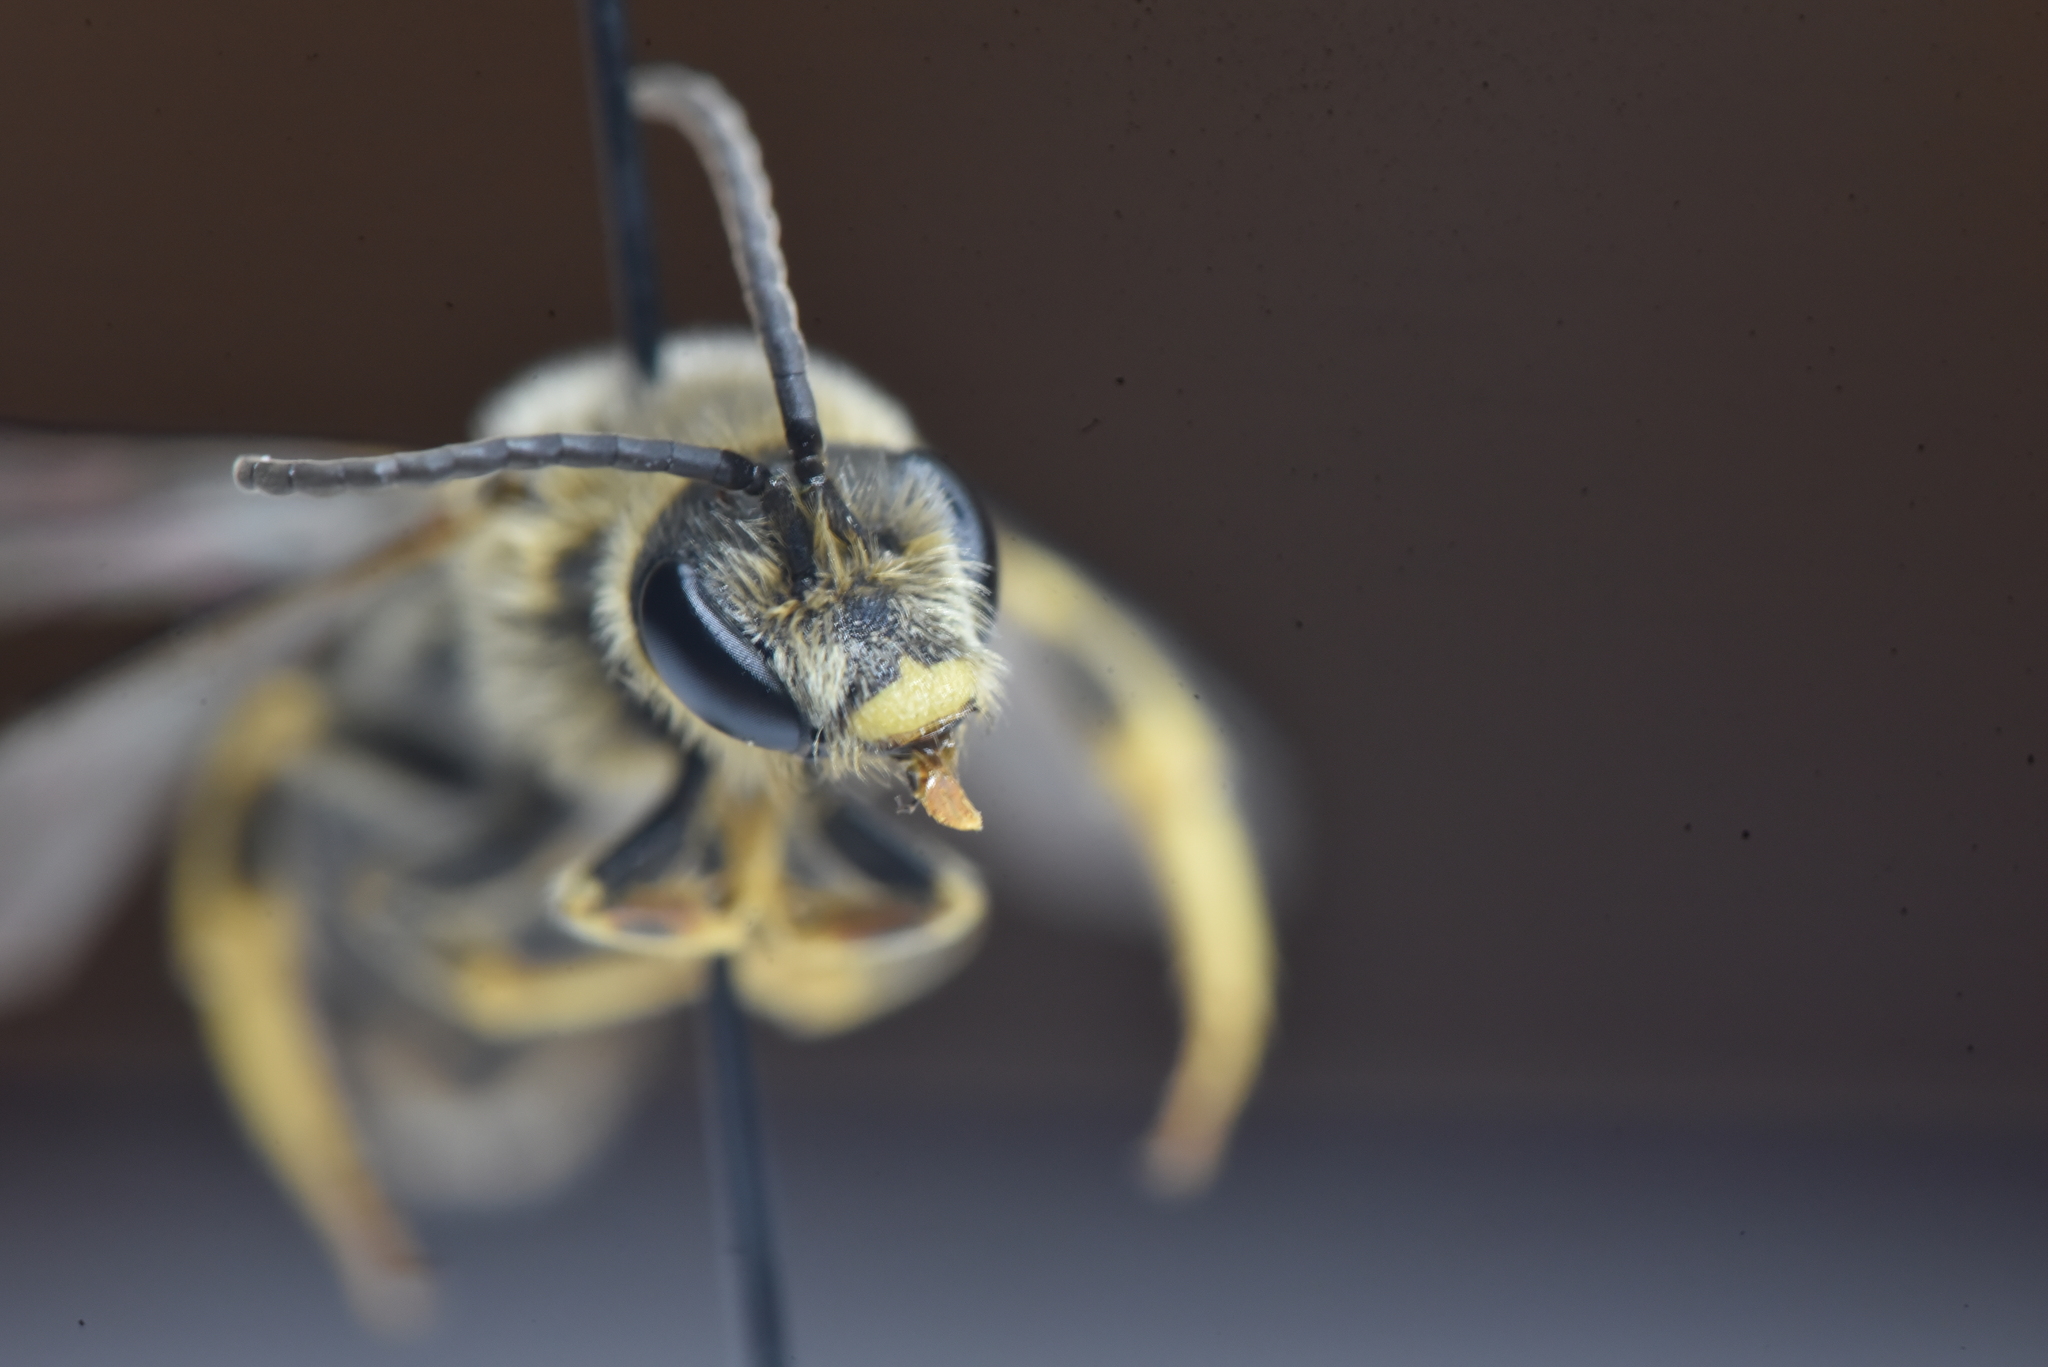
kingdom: Animalia
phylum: Arthropoda
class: Insecta
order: Hymenoptera
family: Halictidae
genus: Halictus
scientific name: Halictus rubicundus
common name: Orange-legged furrow bee
